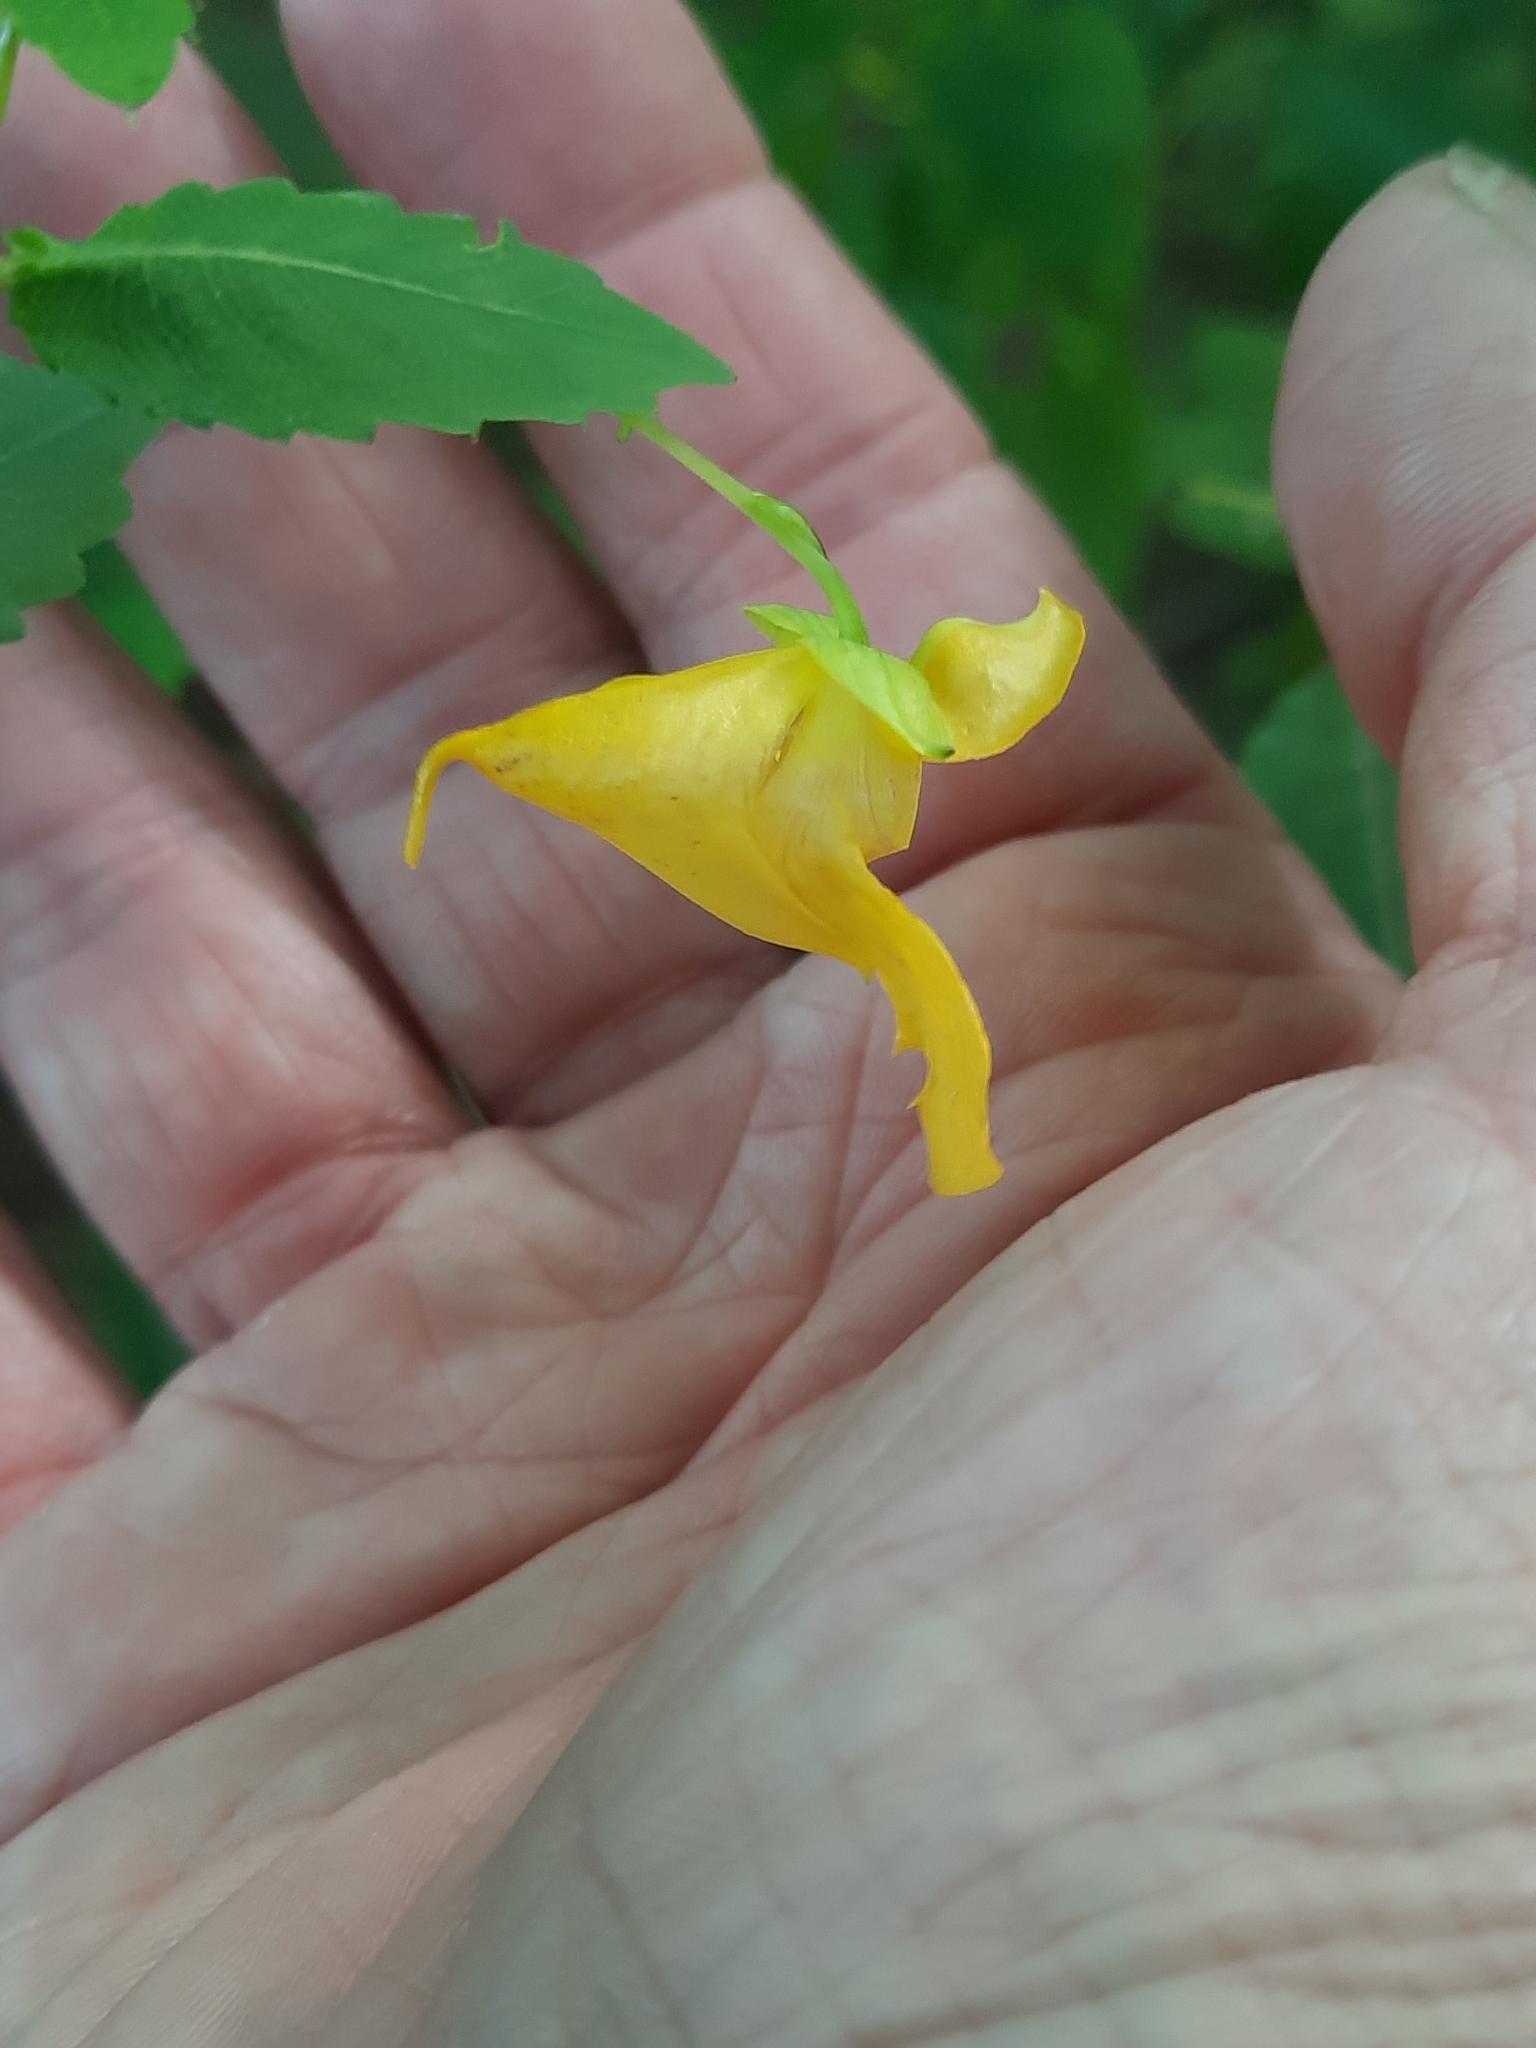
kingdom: Plantae
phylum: Tracheophyta
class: Magnoliopsida
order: Ericales
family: Balsaminaceae
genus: Impatiens
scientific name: Impatiens pallida
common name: Pale snapweed
